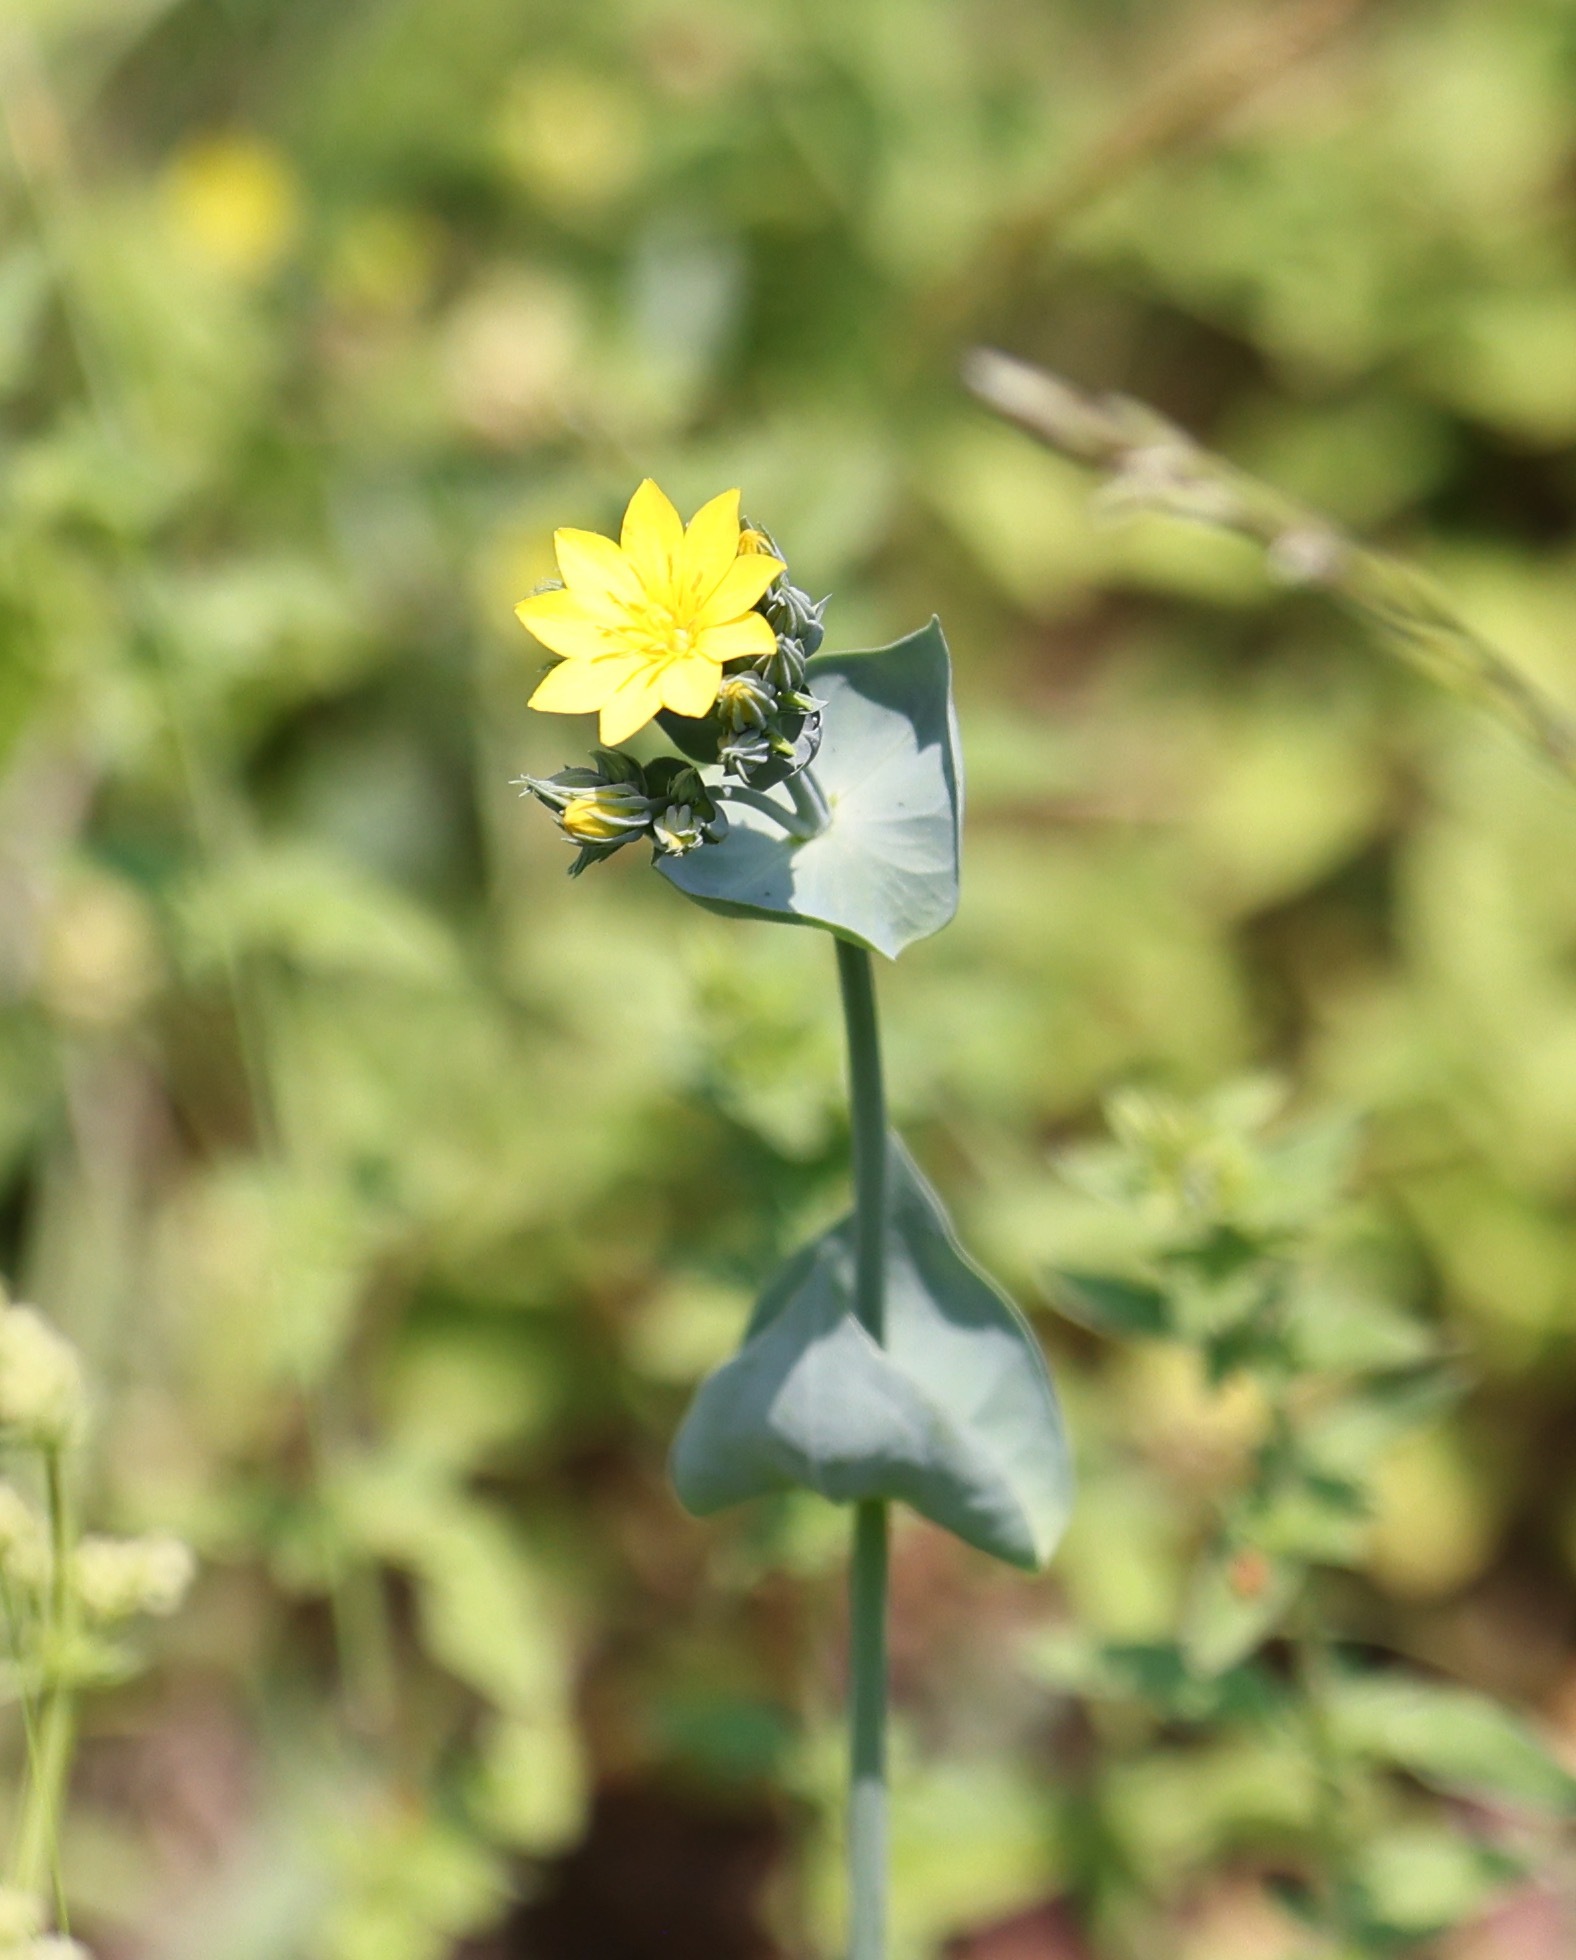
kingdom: Plantae
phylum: Tracheophyta
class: Magnoliopsida
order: Gentianales
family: Gentianaceae
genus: Blackstonia
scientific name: Blackstonia perfoliata
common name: Yellow-wort
